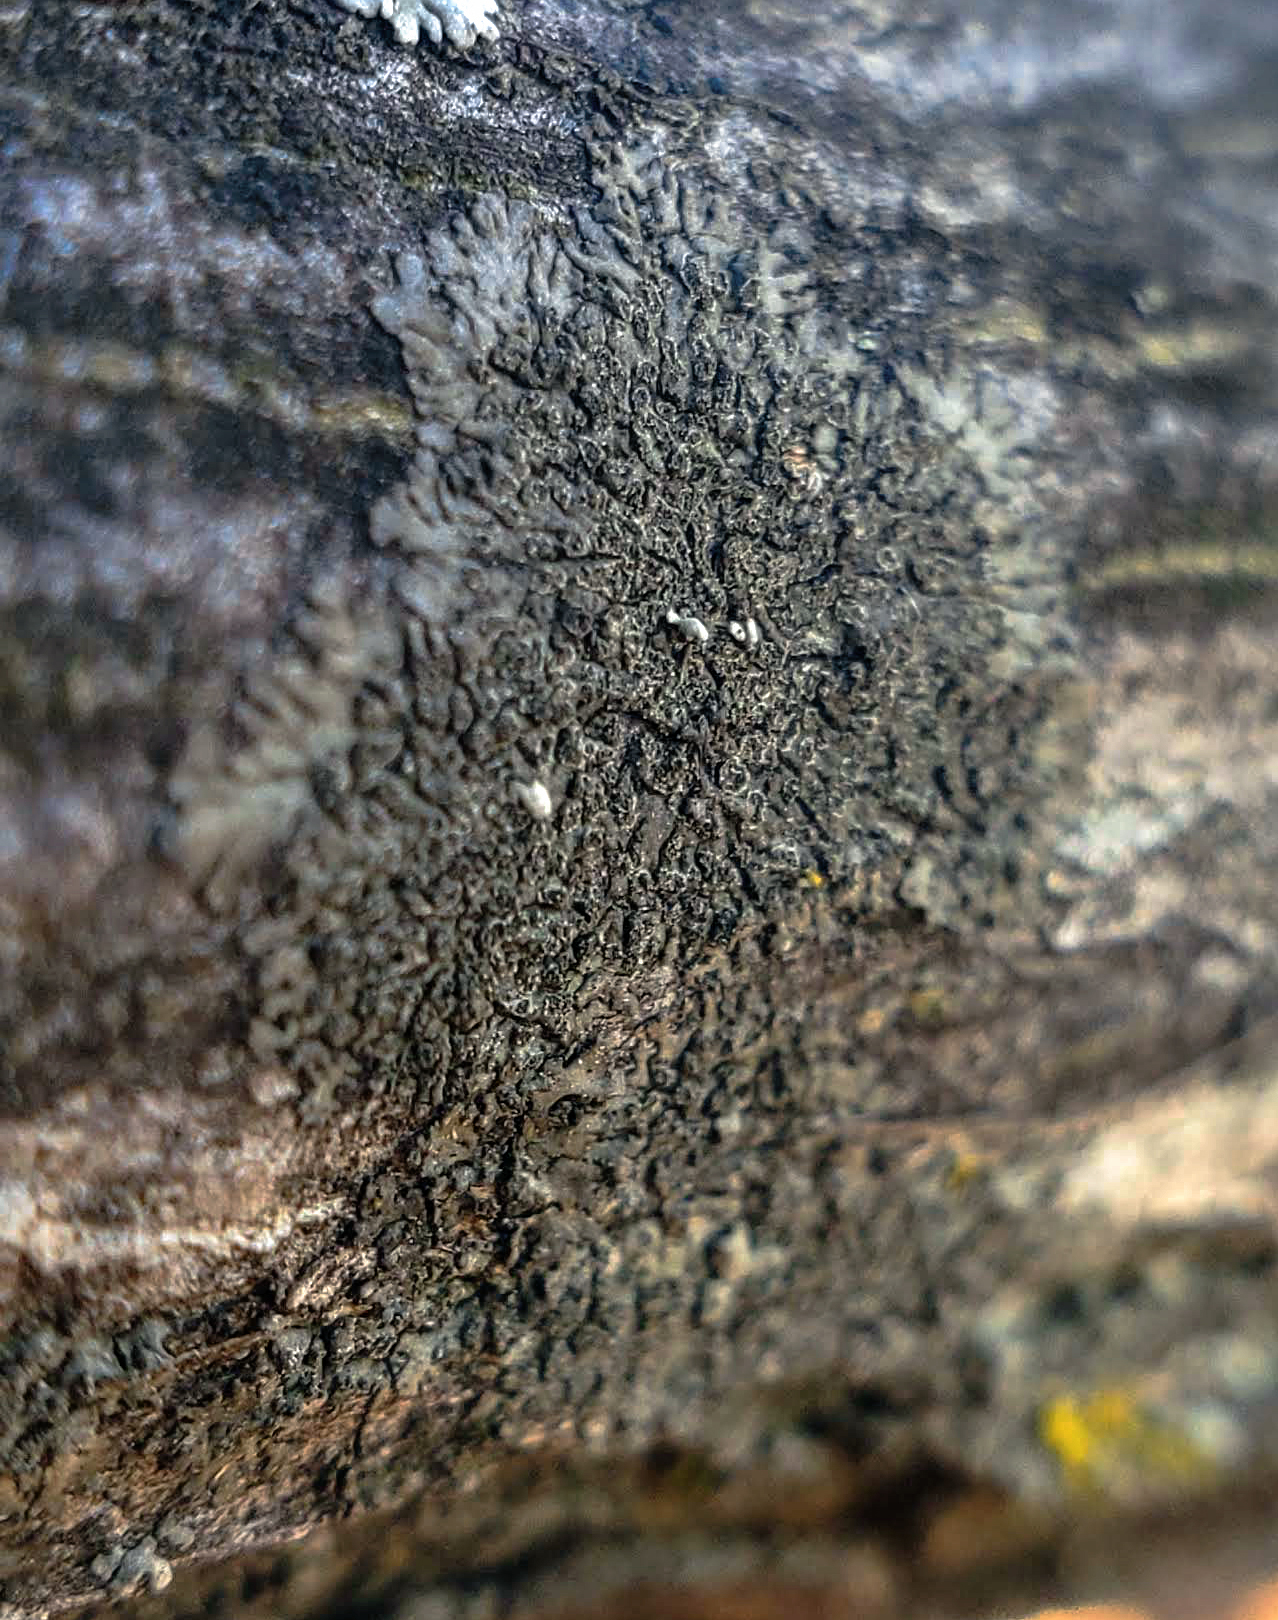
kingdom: Fungi
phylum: Ascomycota
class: Lecanoromycetes
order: Caliciales
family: Physciaceae
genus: Hyperphyscia
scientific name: Hyperphyscia adglutinata
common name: Grainy shadow-crust lichen
